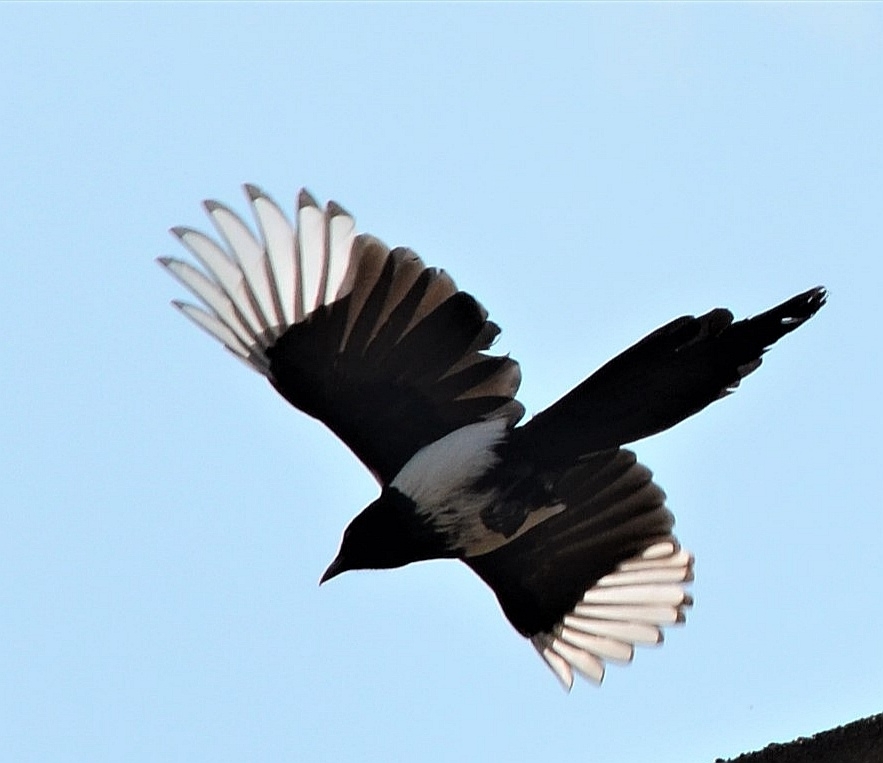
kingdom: Animalia
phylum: Chordata
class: Aves
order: Passeriformes
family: Corvidae
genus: Pica
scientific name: Pica pica
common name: Eurasian magpie
